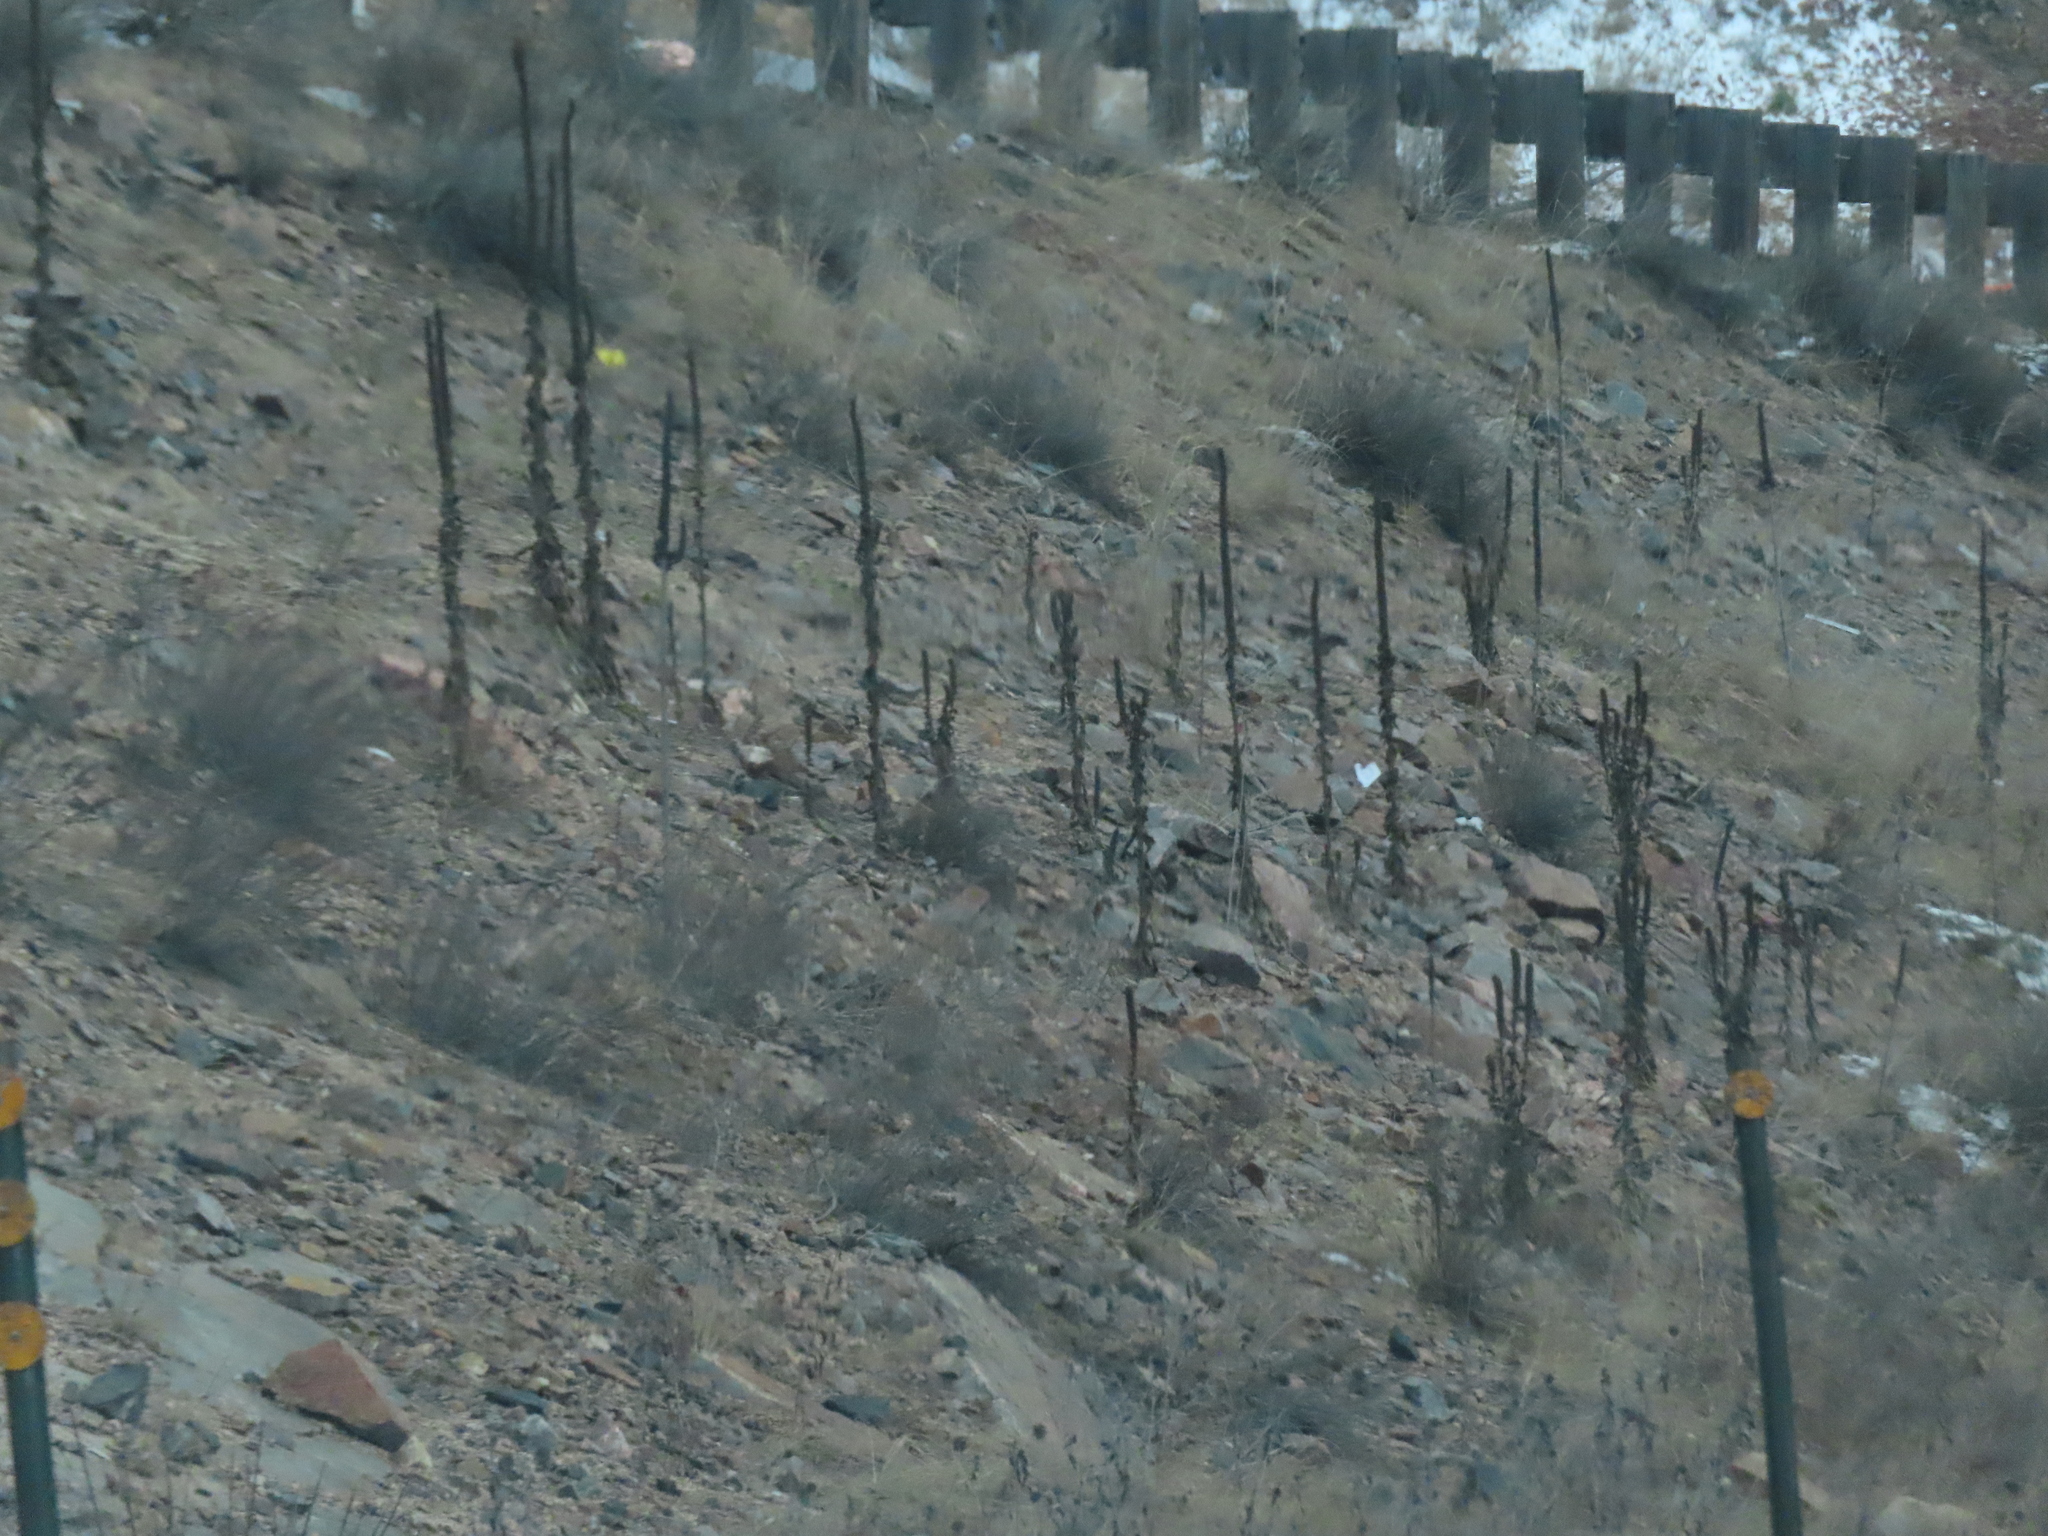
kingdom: Plantae
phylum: Tracheophyta
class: Magnoliopsida
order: Lamiales
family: Scrophulariaceae
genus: Verbascum
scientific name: Verbascum thapsus
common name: Common mullein
